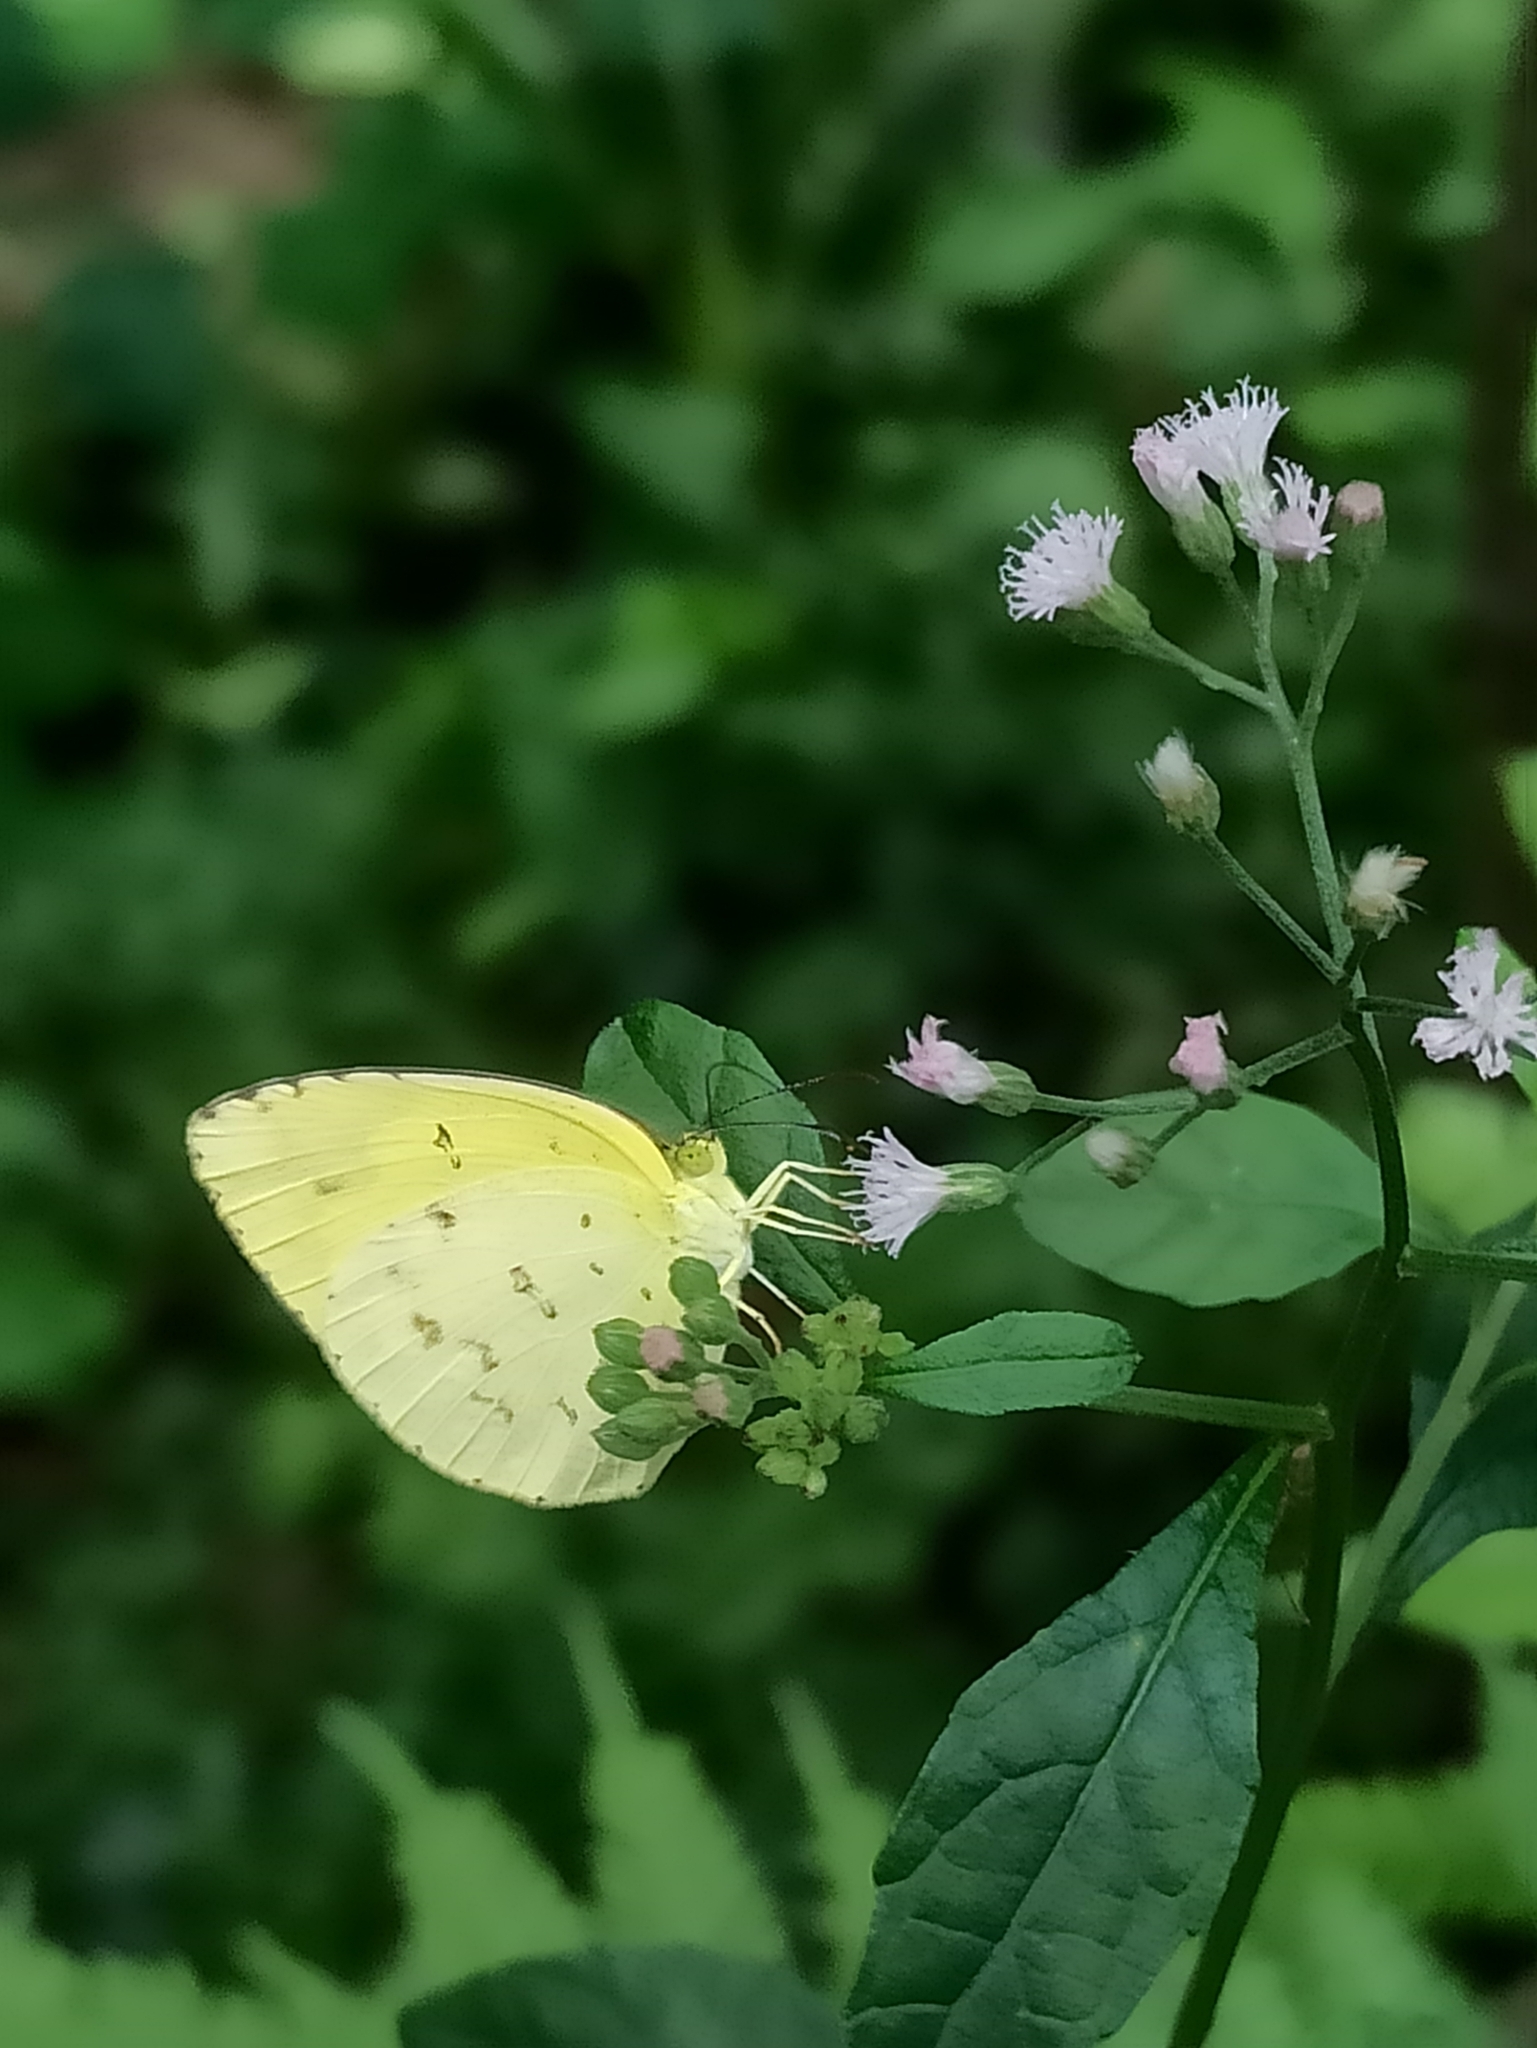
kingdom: Animalia
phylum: Arthropoda
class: Insecta
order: Lepidoptera
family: Pieridae
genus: Eurema
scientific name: Eurema hecabe
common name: Pale grass yellow
